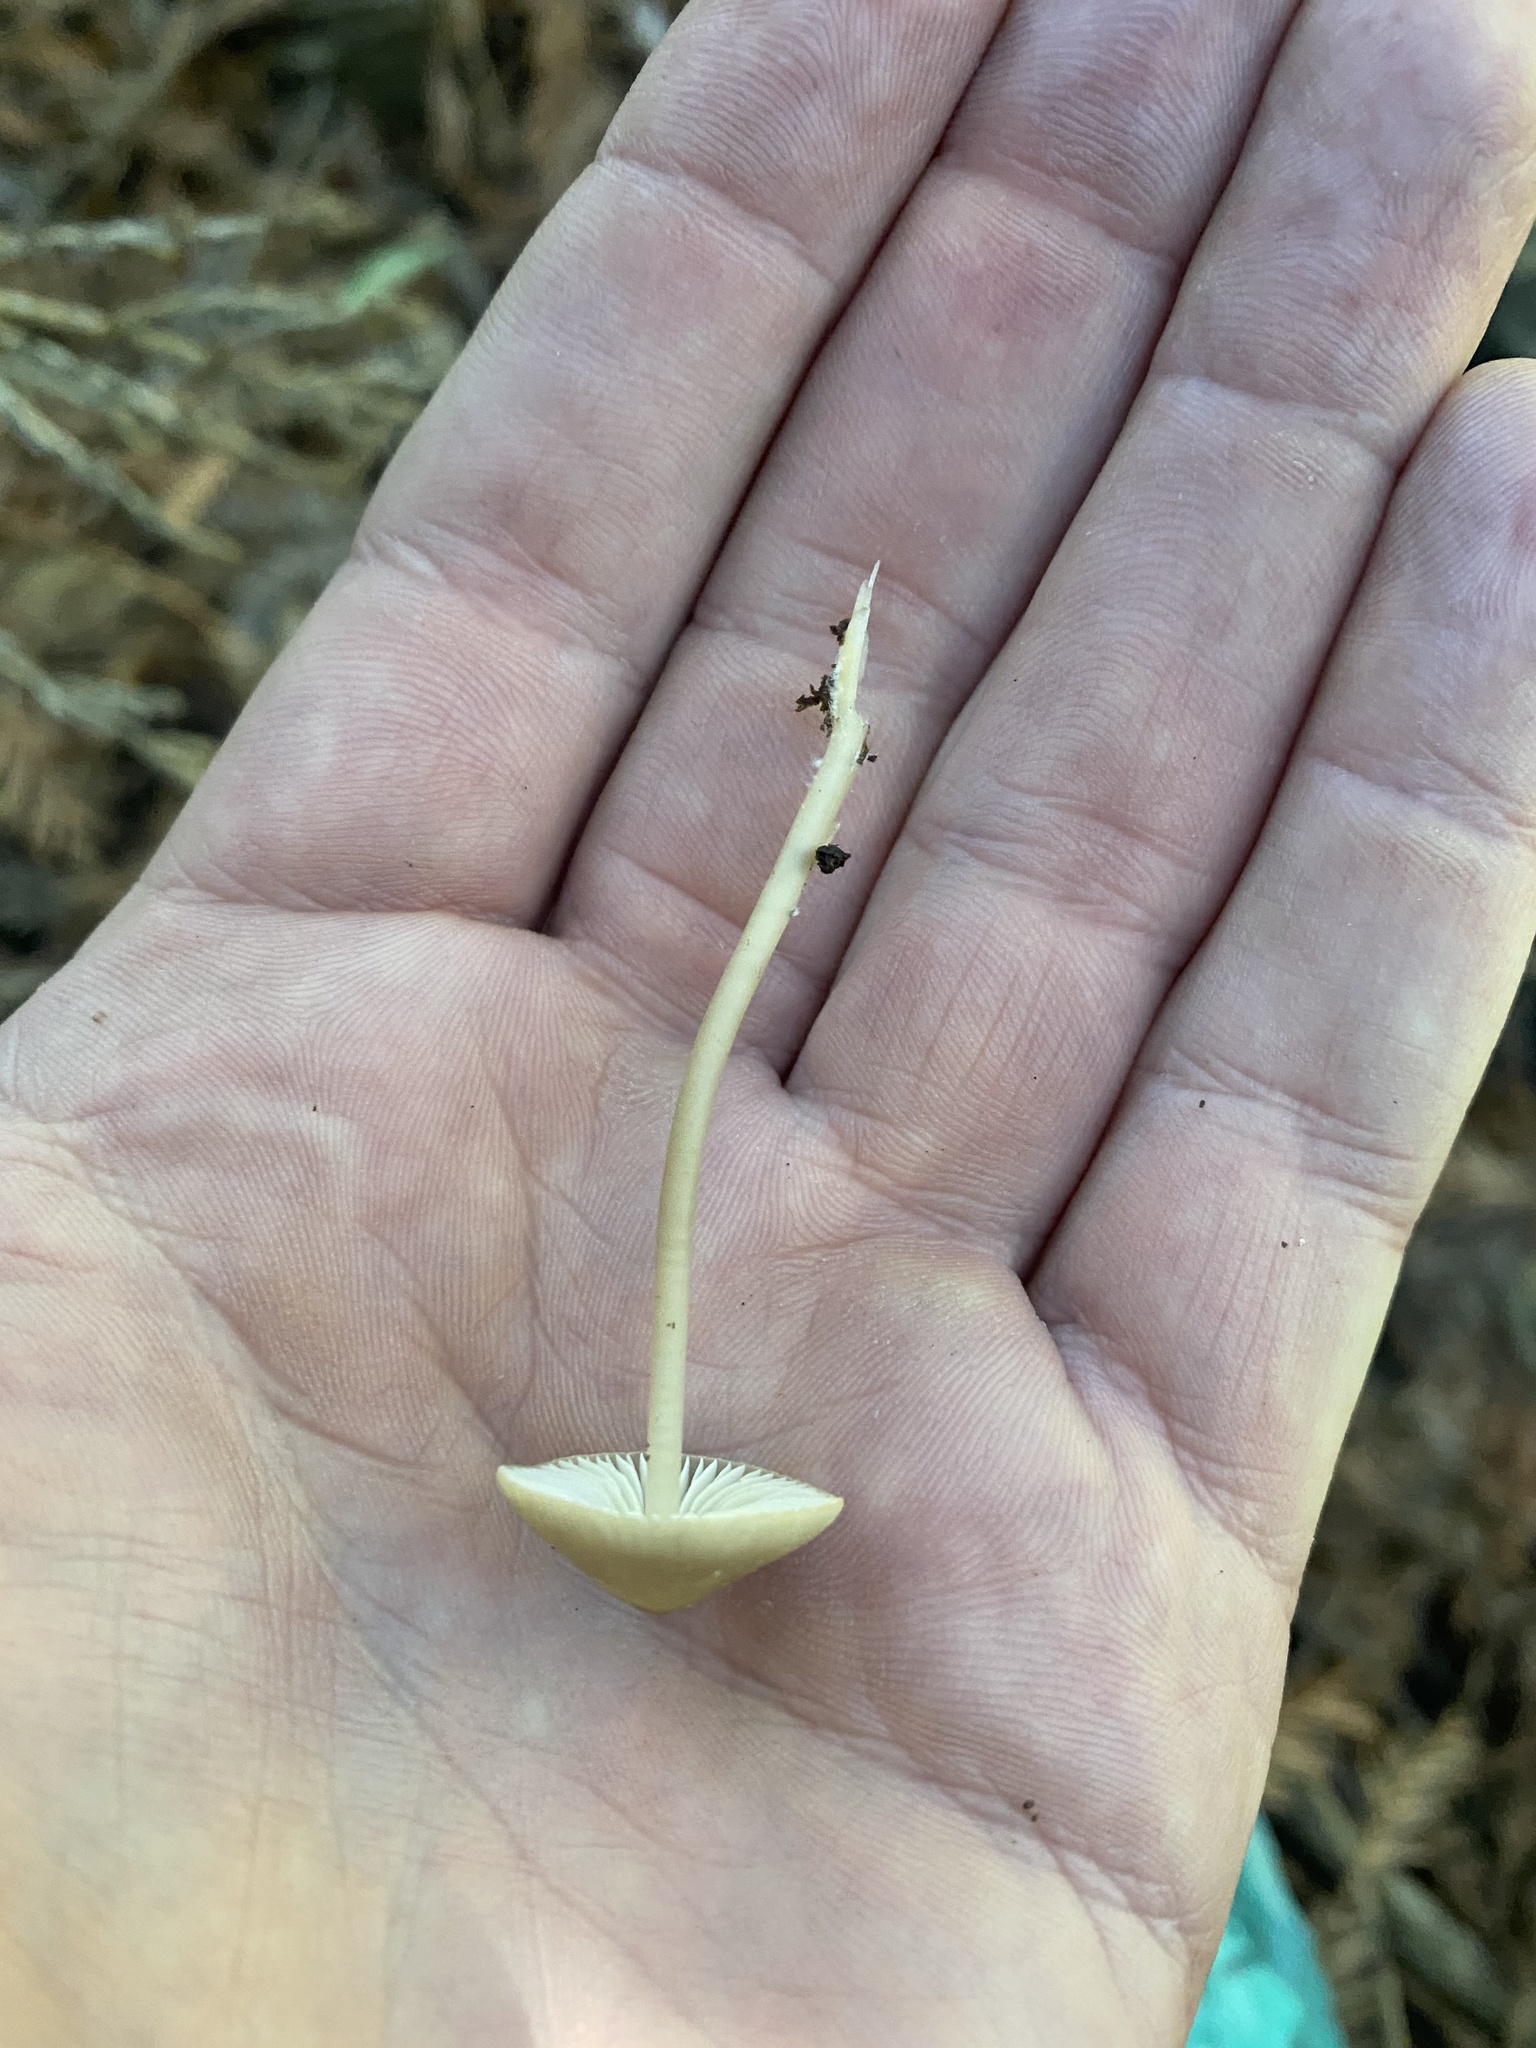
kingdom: Fungi
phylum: Basidiomycota
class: Agaricomycetes
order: Agaricales
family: Mycenaceae
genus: Mycena
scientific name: Mycena galericulata
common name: Bonnet mycena
